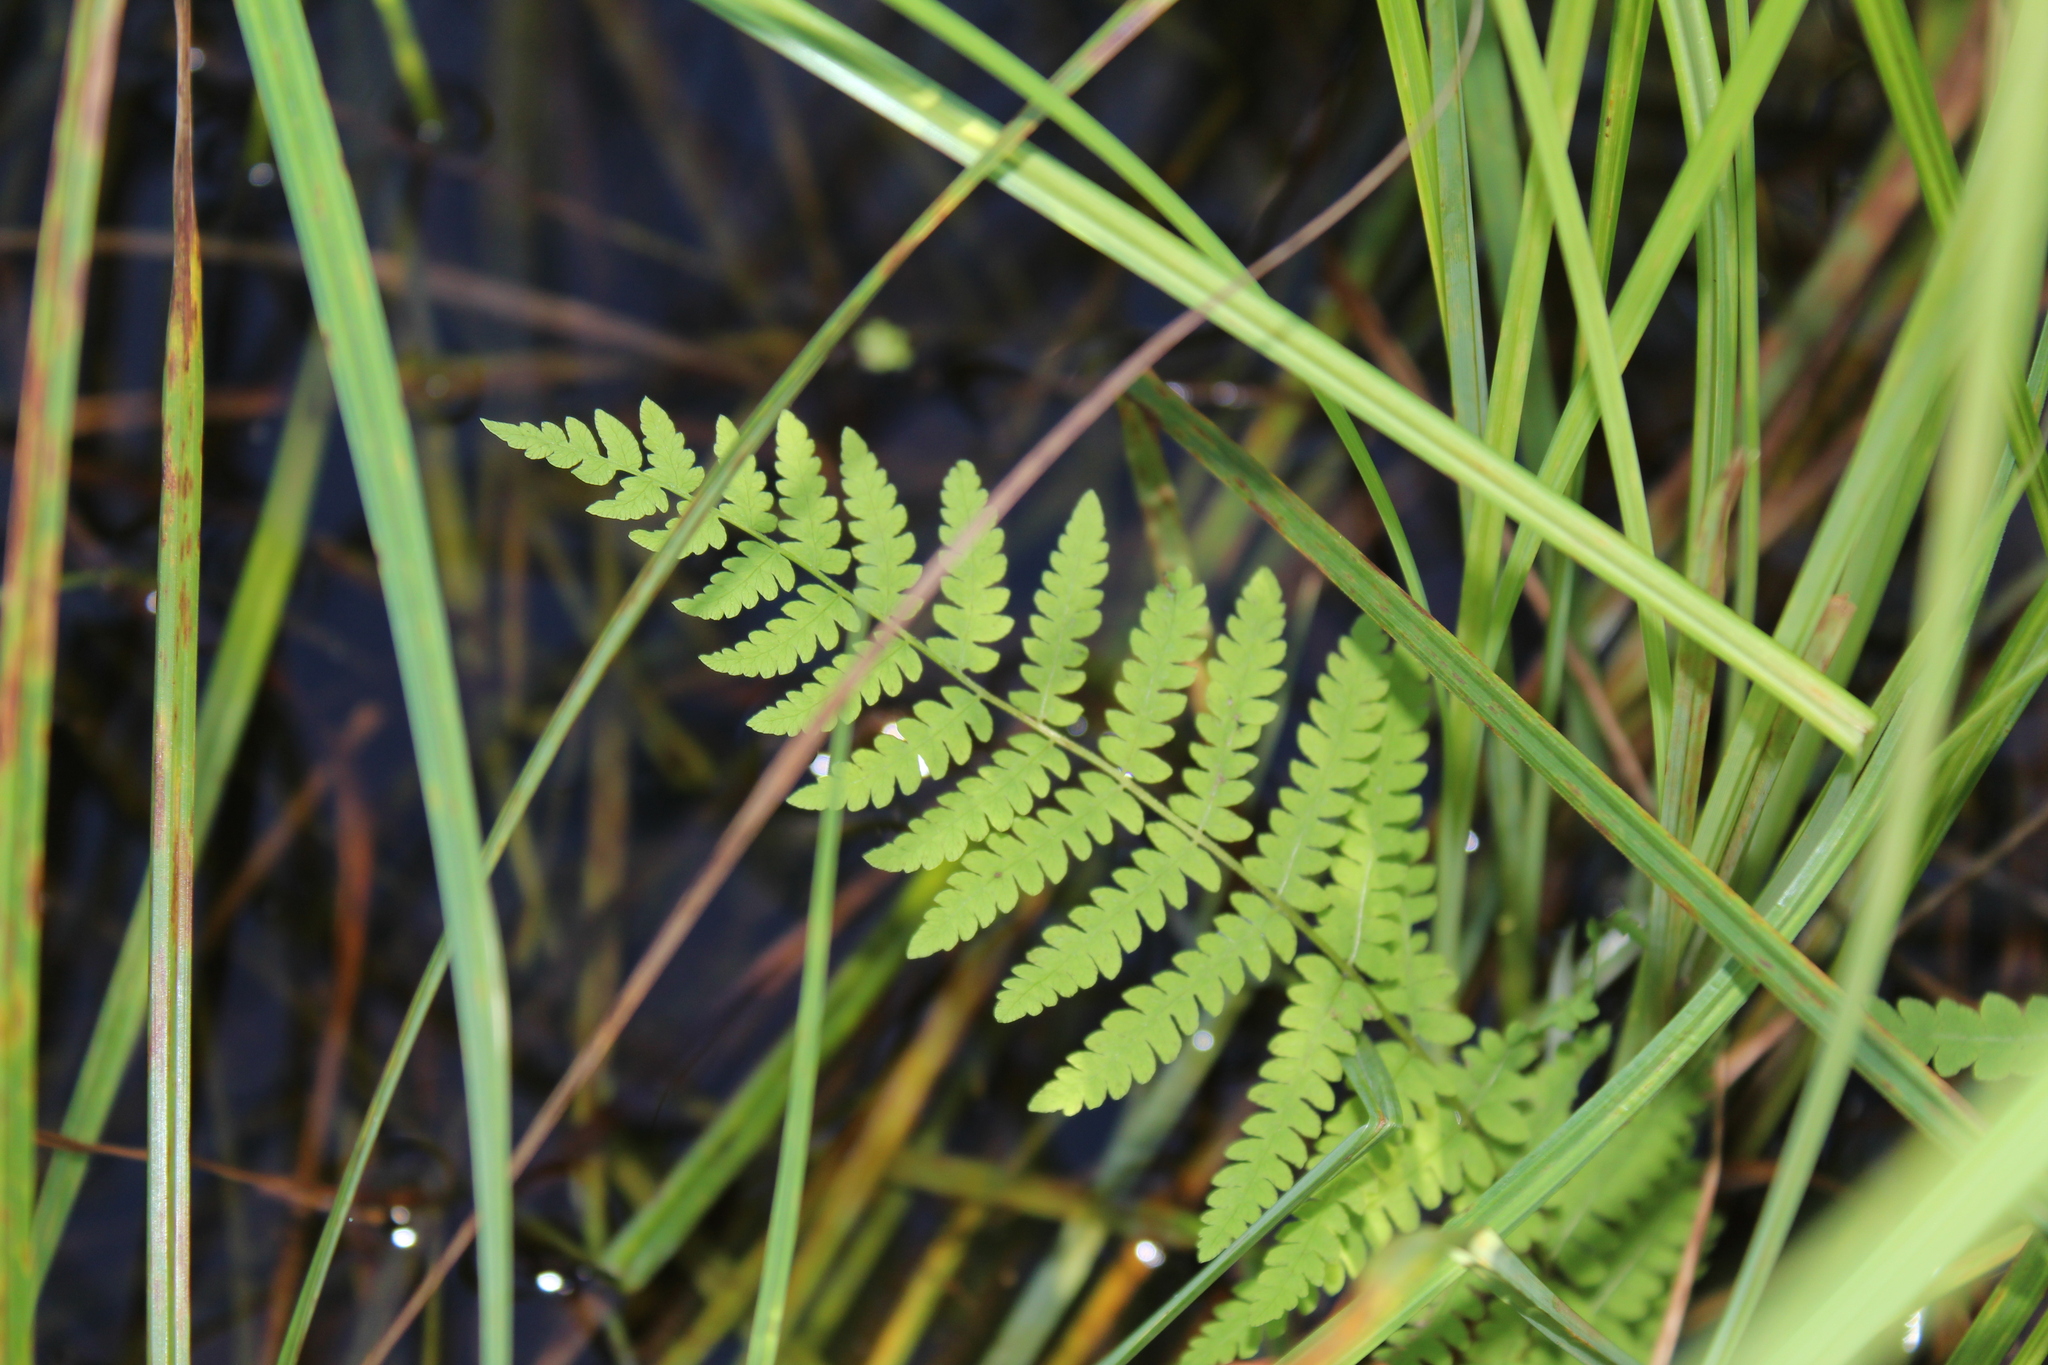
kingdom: Plantae
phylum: Tracheophyta
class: Polypodiopsida
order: Polypodiales
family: Thelypteridaceae
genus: Thelypteris
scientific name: Thelypteris palustris
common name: Marsh fern
